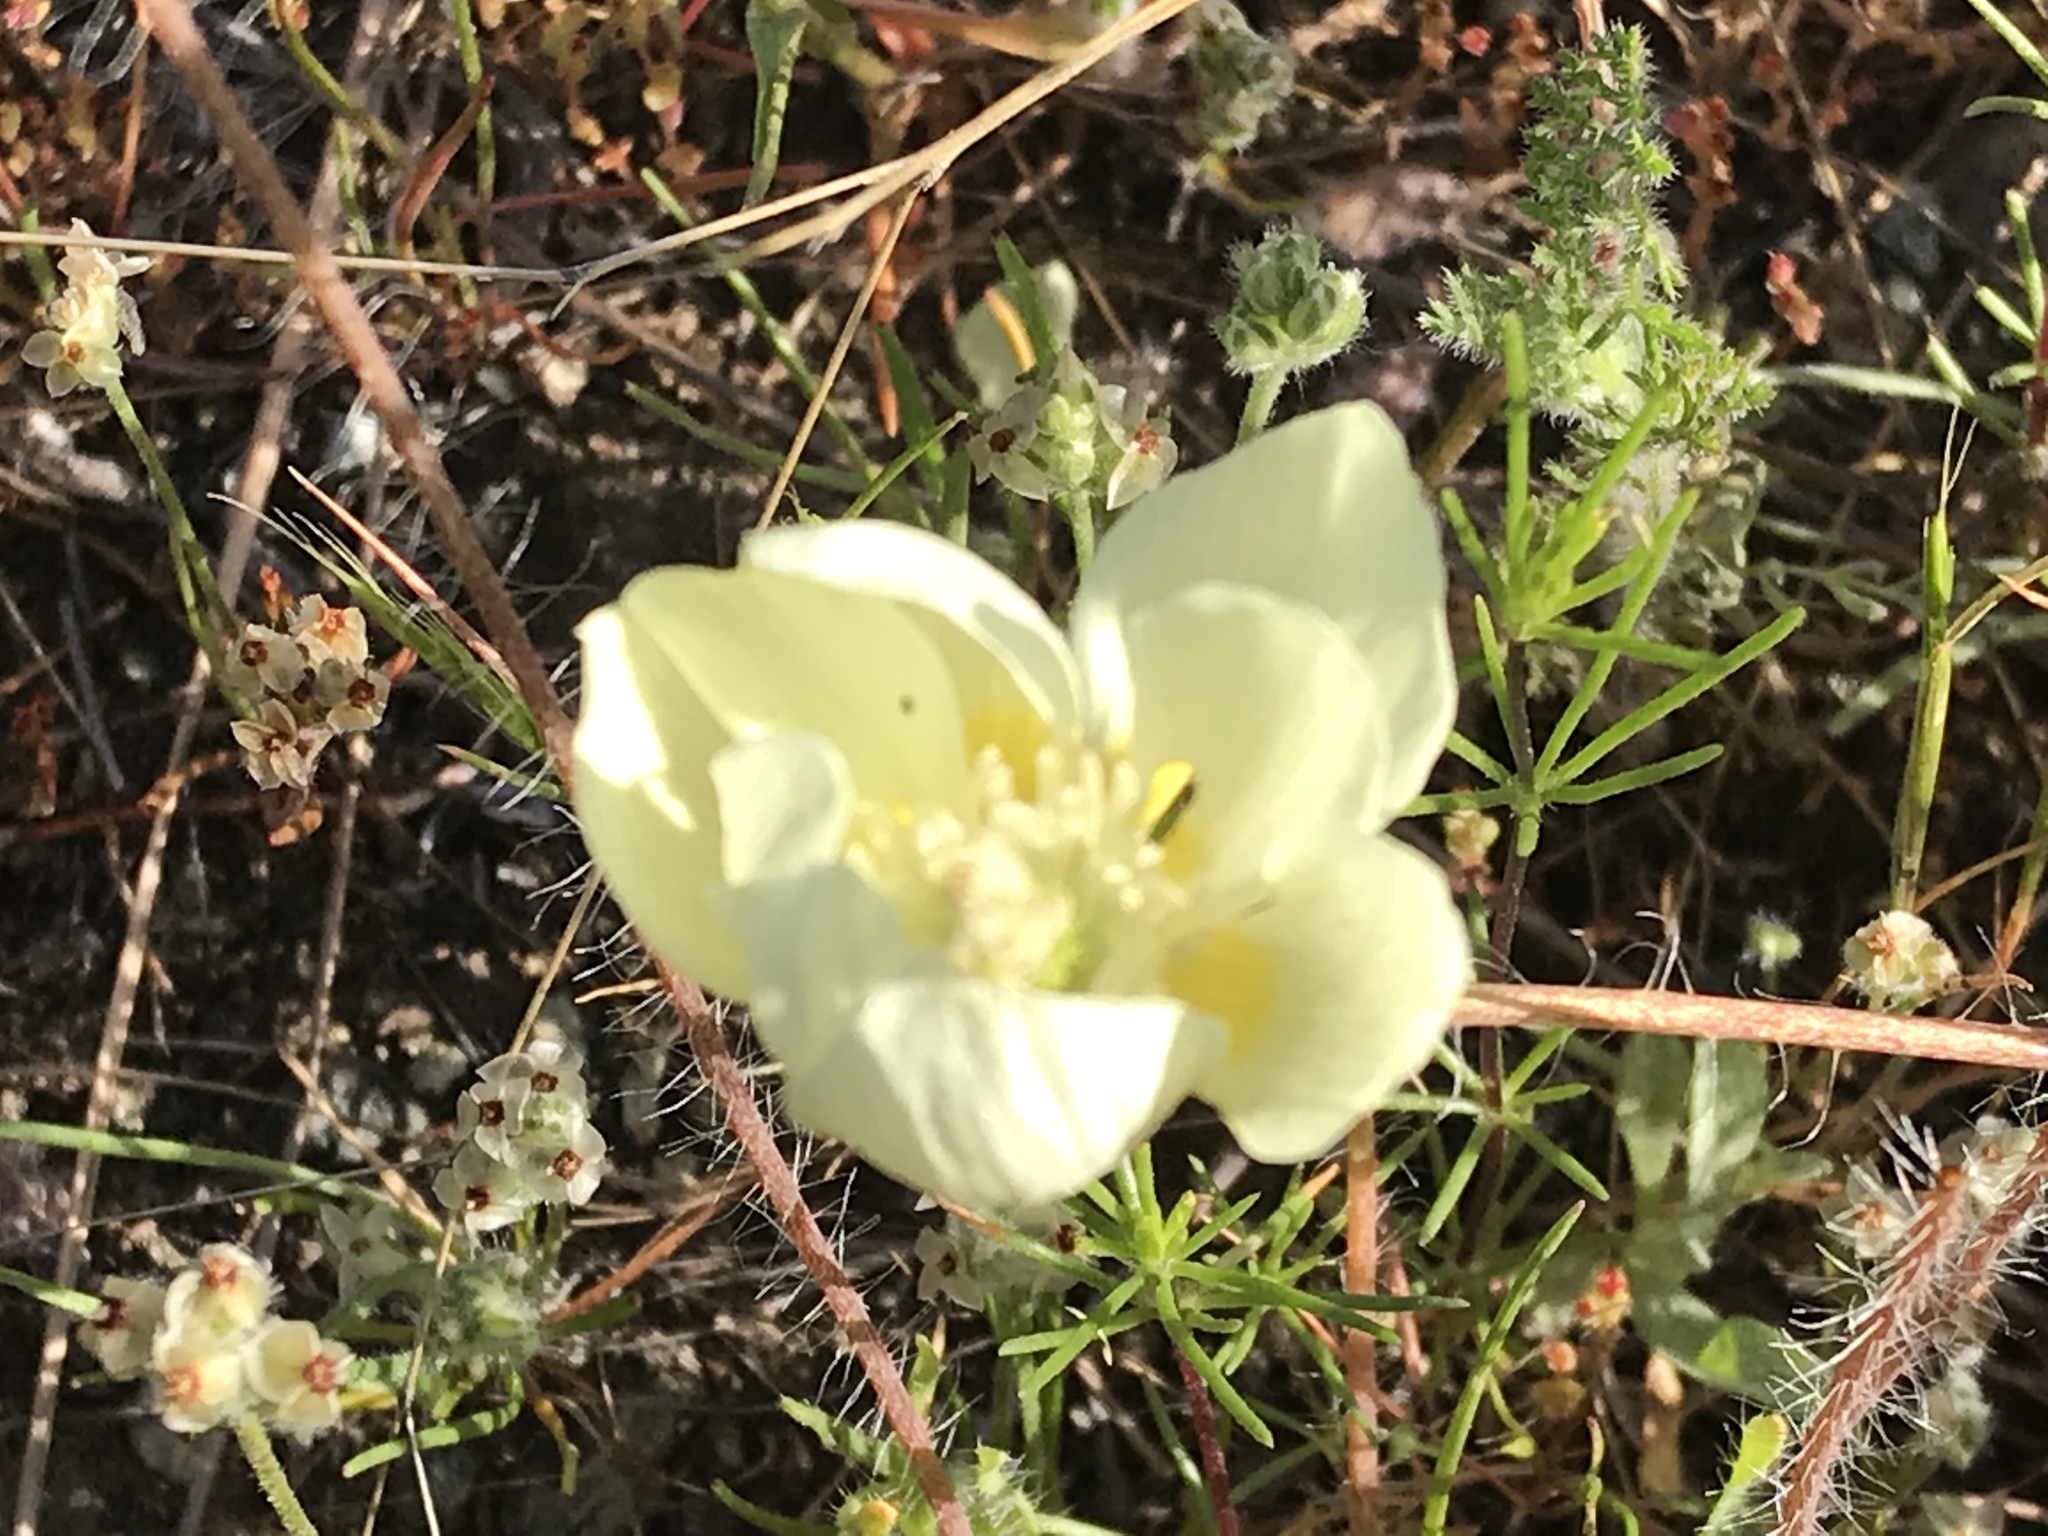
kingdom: Plantae
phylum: Tracheophyta
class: Magnoliopsida
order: Ranunculales
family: Papaveraceae
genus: Platystemon
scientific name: Platystemon californicus
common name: Cream-cups
